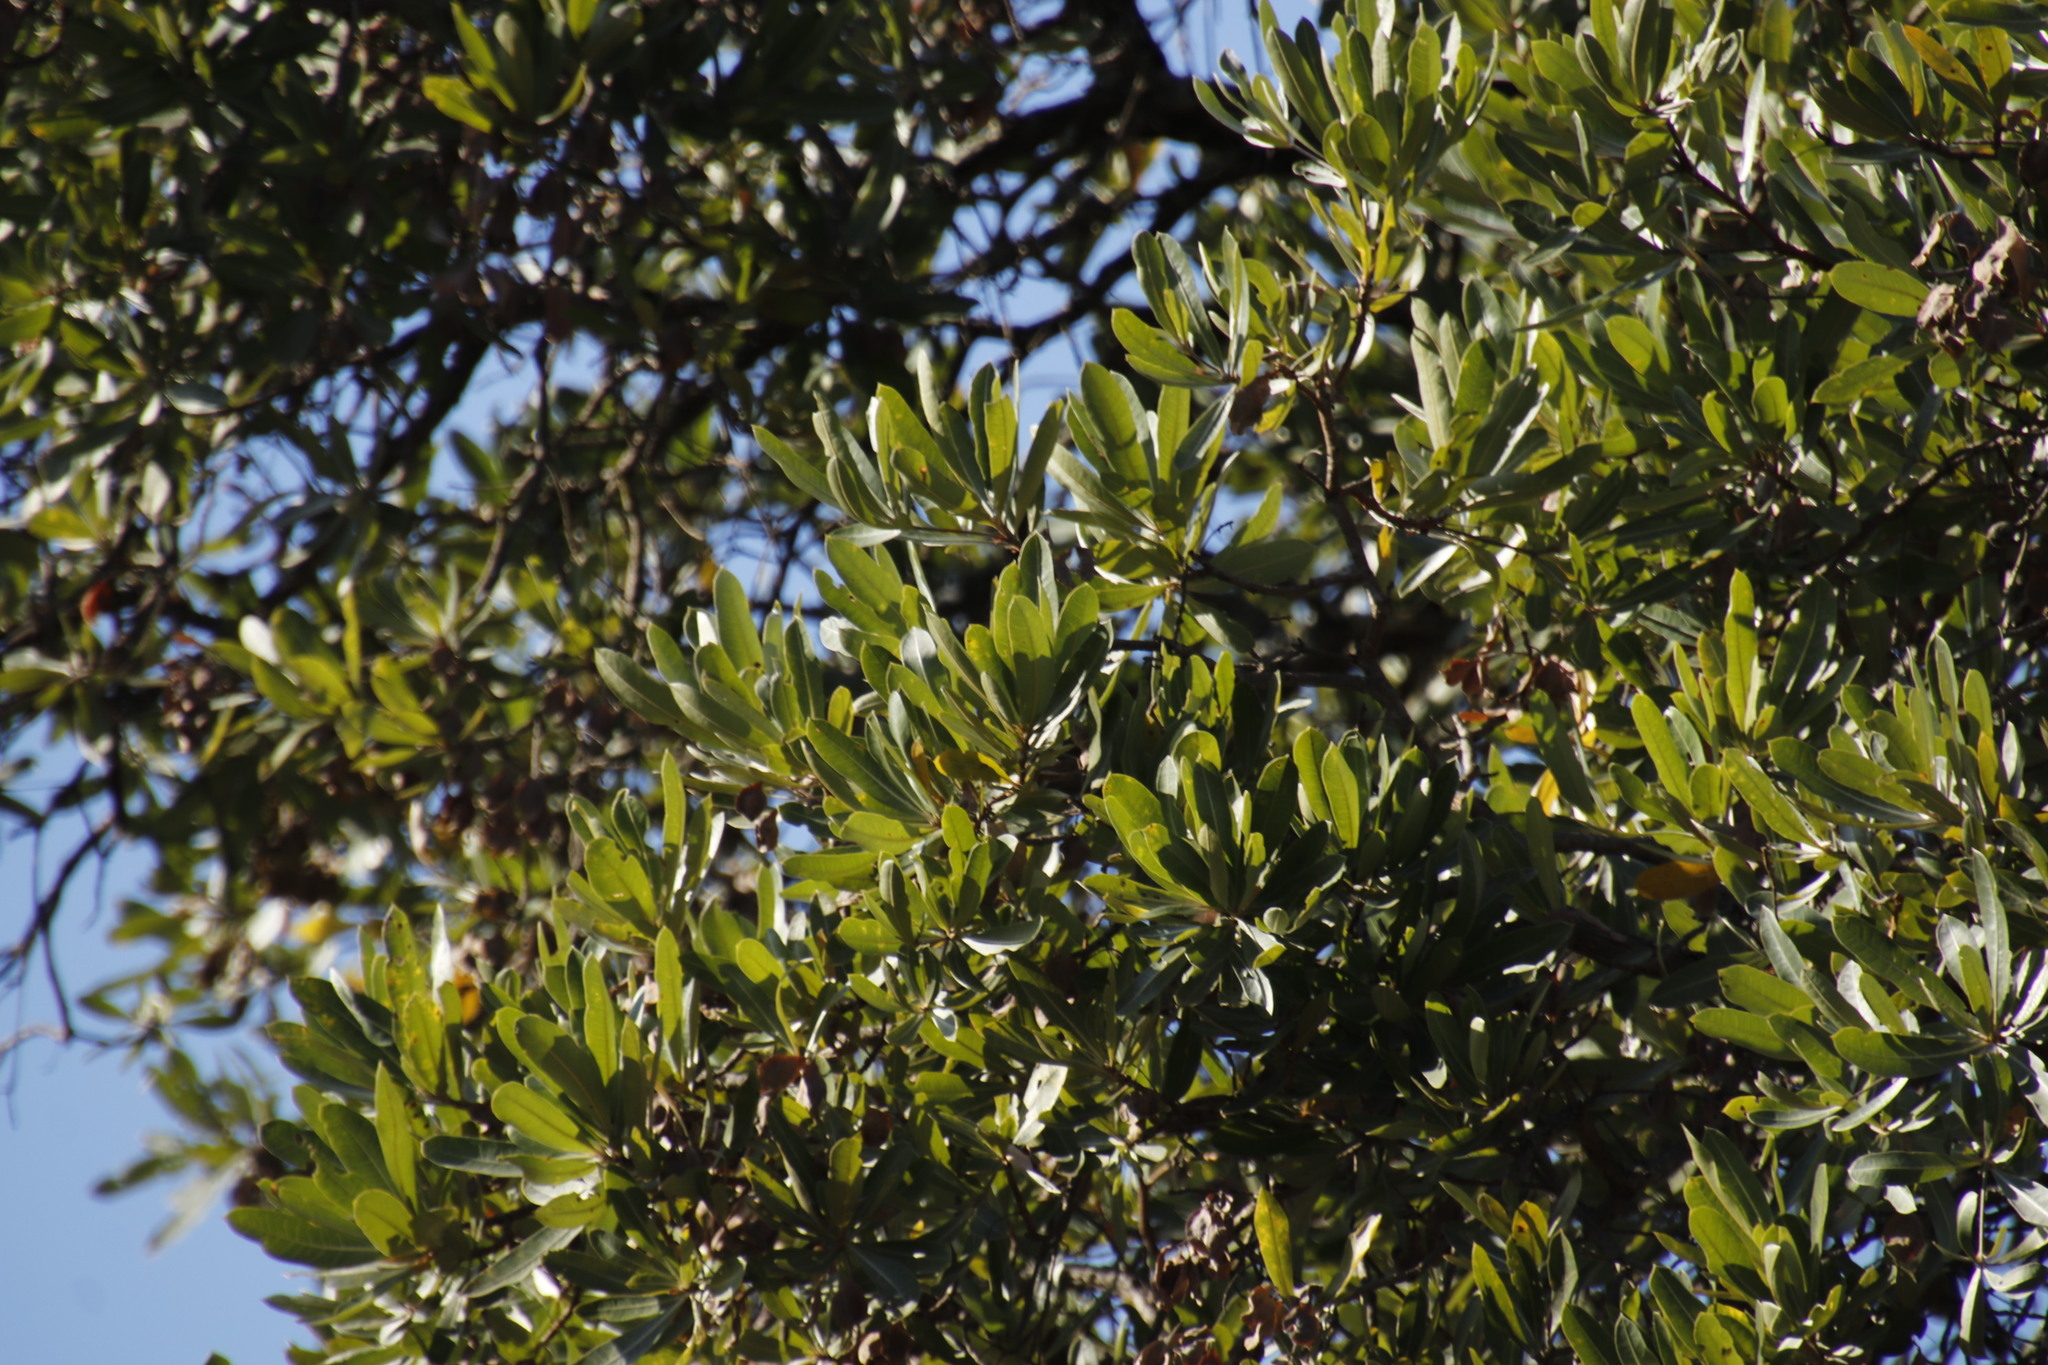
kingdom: Plantae
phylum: Tracheophyta
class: Magnoliopsida
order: Myrtales
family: Combretaceae
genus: Terminalia
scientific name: Terminalia sericea
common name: Clusterleaf
